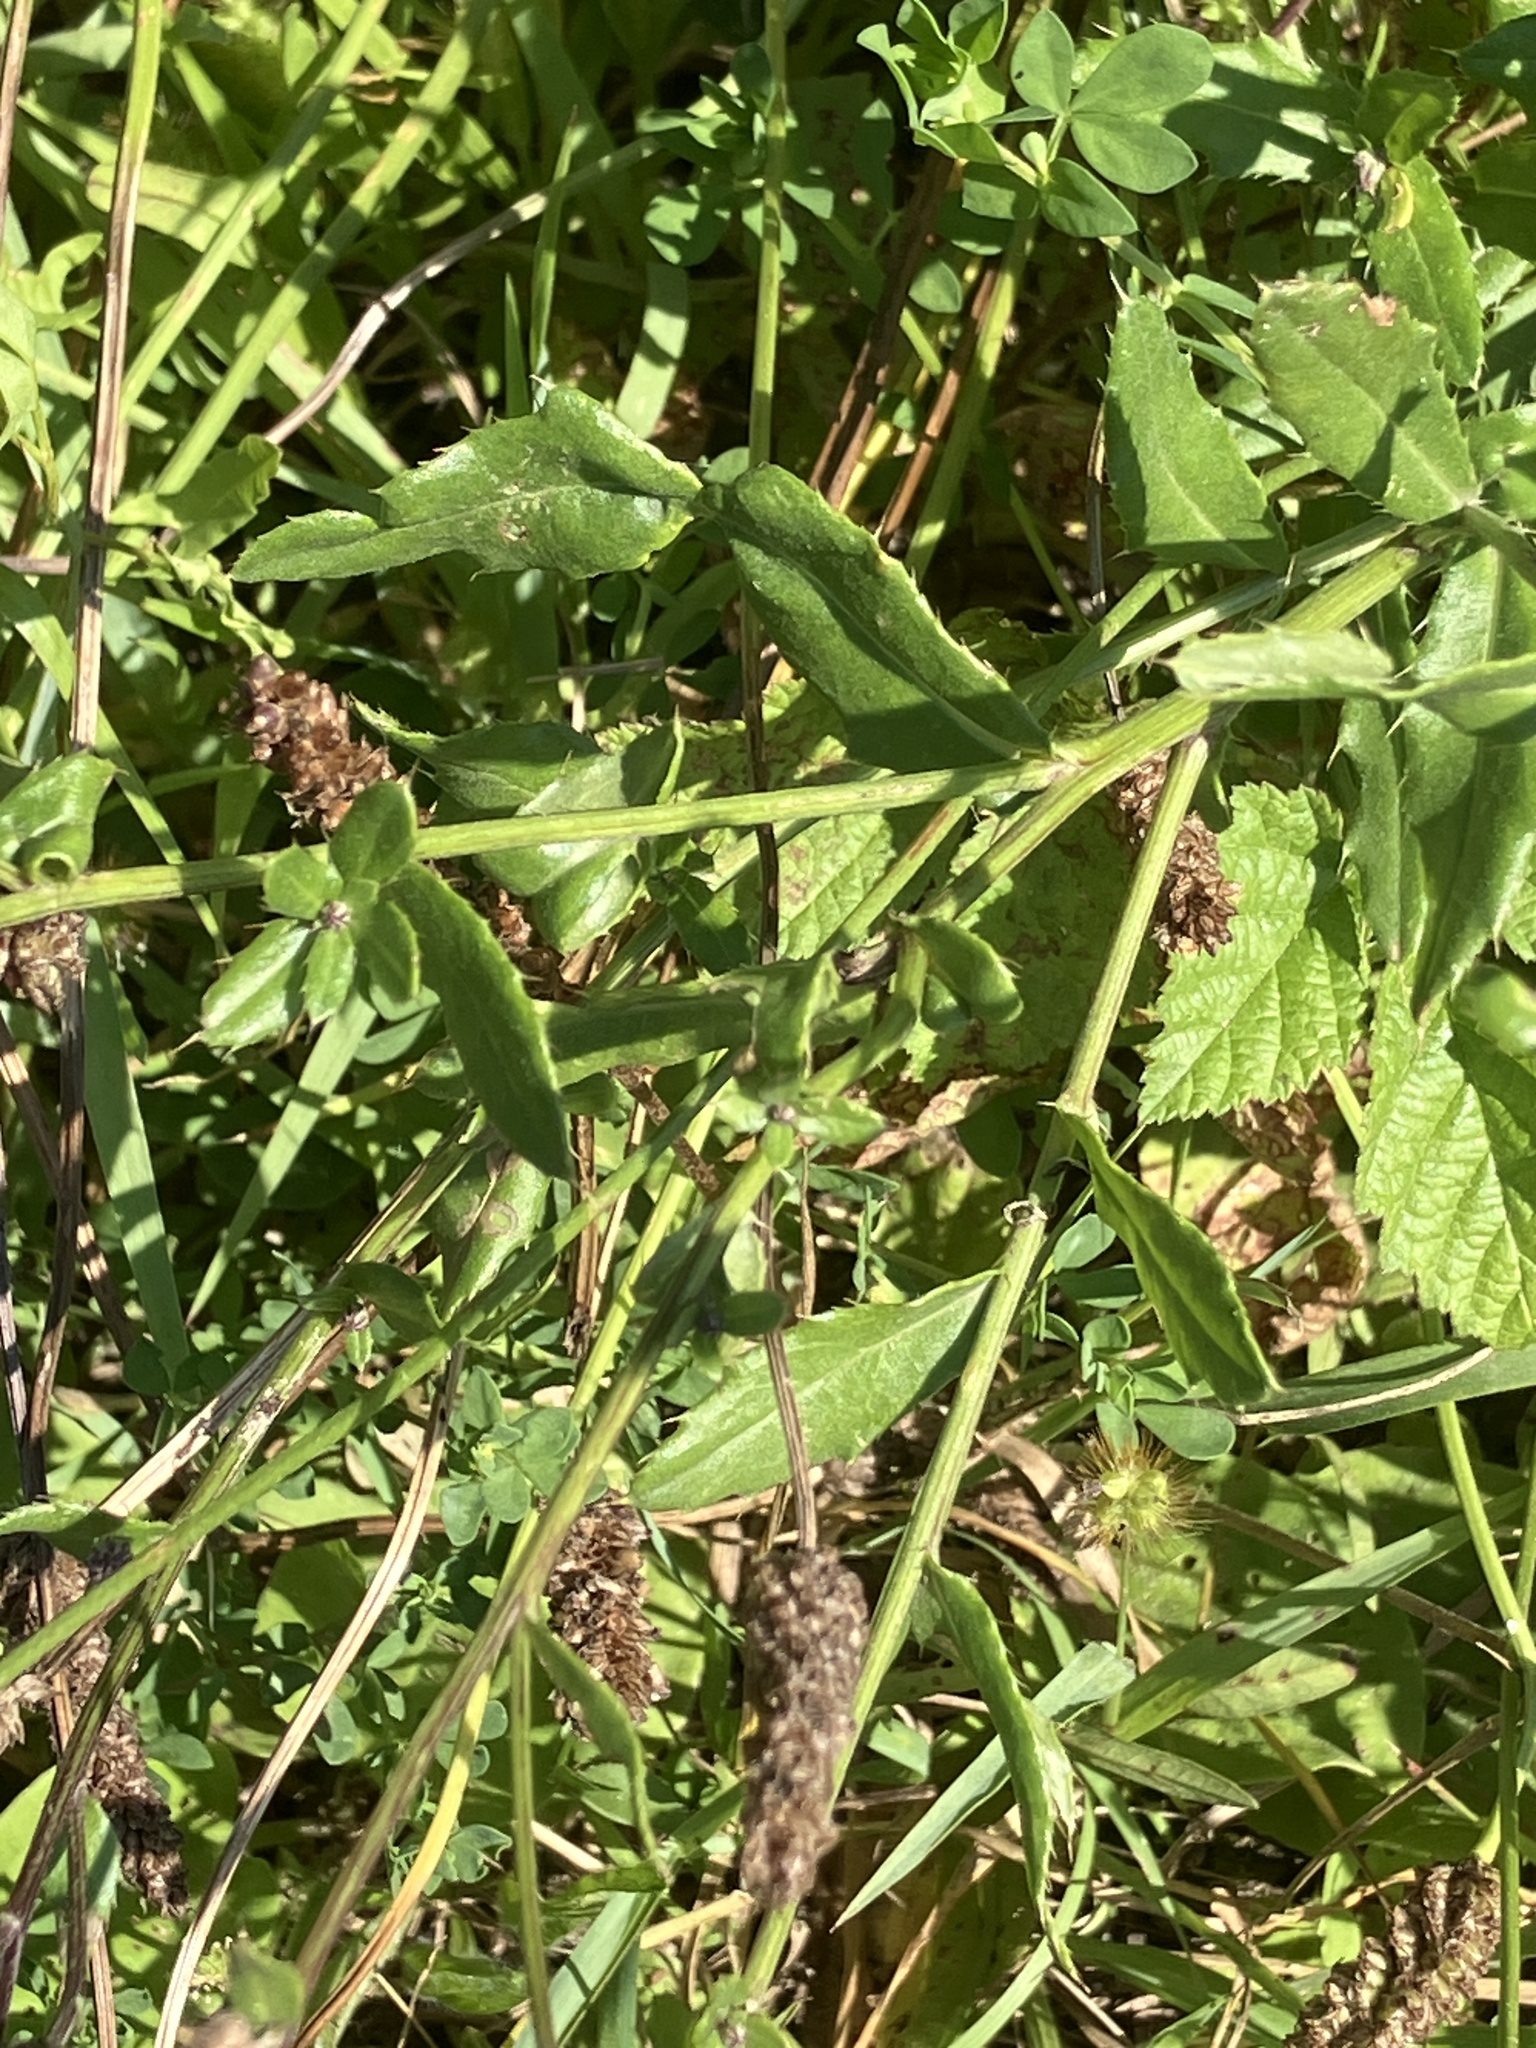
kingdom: Plantae
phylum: Tracheophyta
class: Magnoliopsida
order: Asterales
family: Asteraceae
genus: Cirsium
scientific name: Cirsium arvense
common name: Creeping thistle
